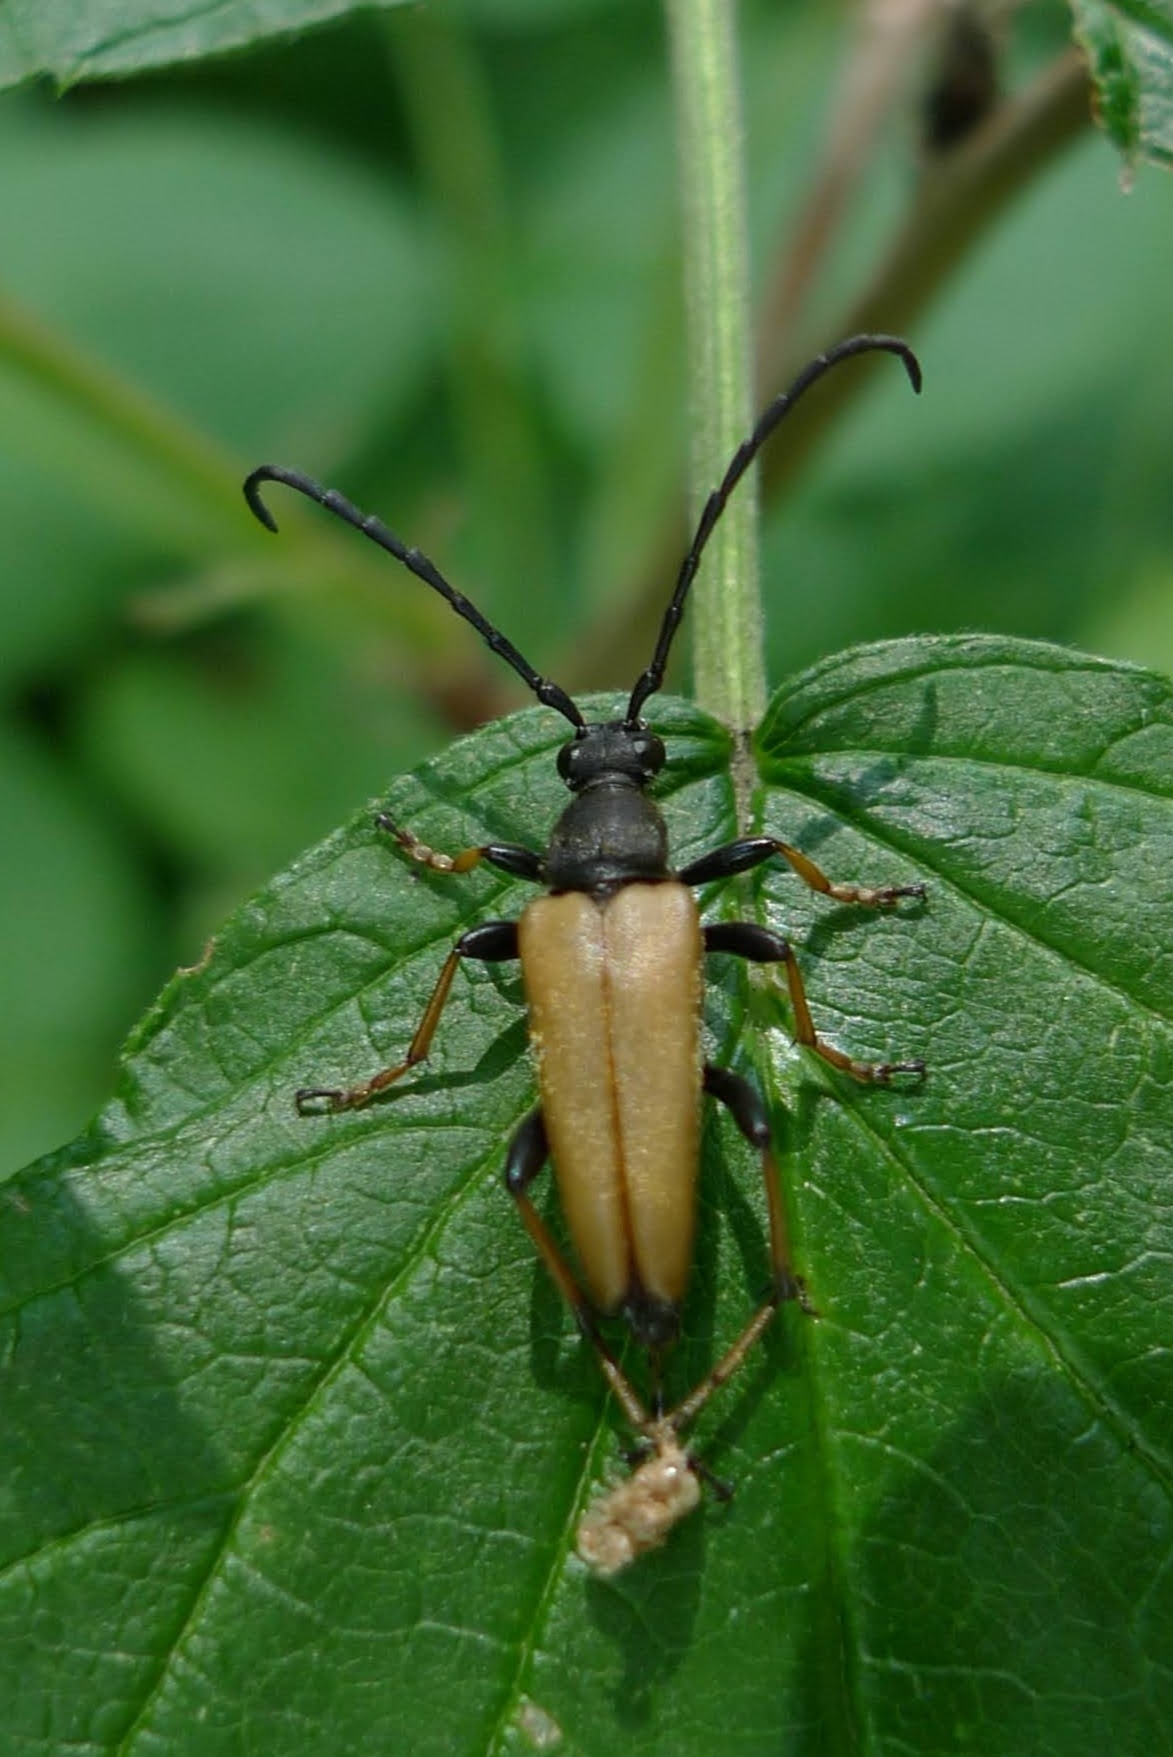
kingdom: Animalia
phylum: Arthropoda
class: Insecta
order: Coleoptera
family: Cerambycidae
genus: Stictoleptura
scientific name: Stictoleptura rubra
